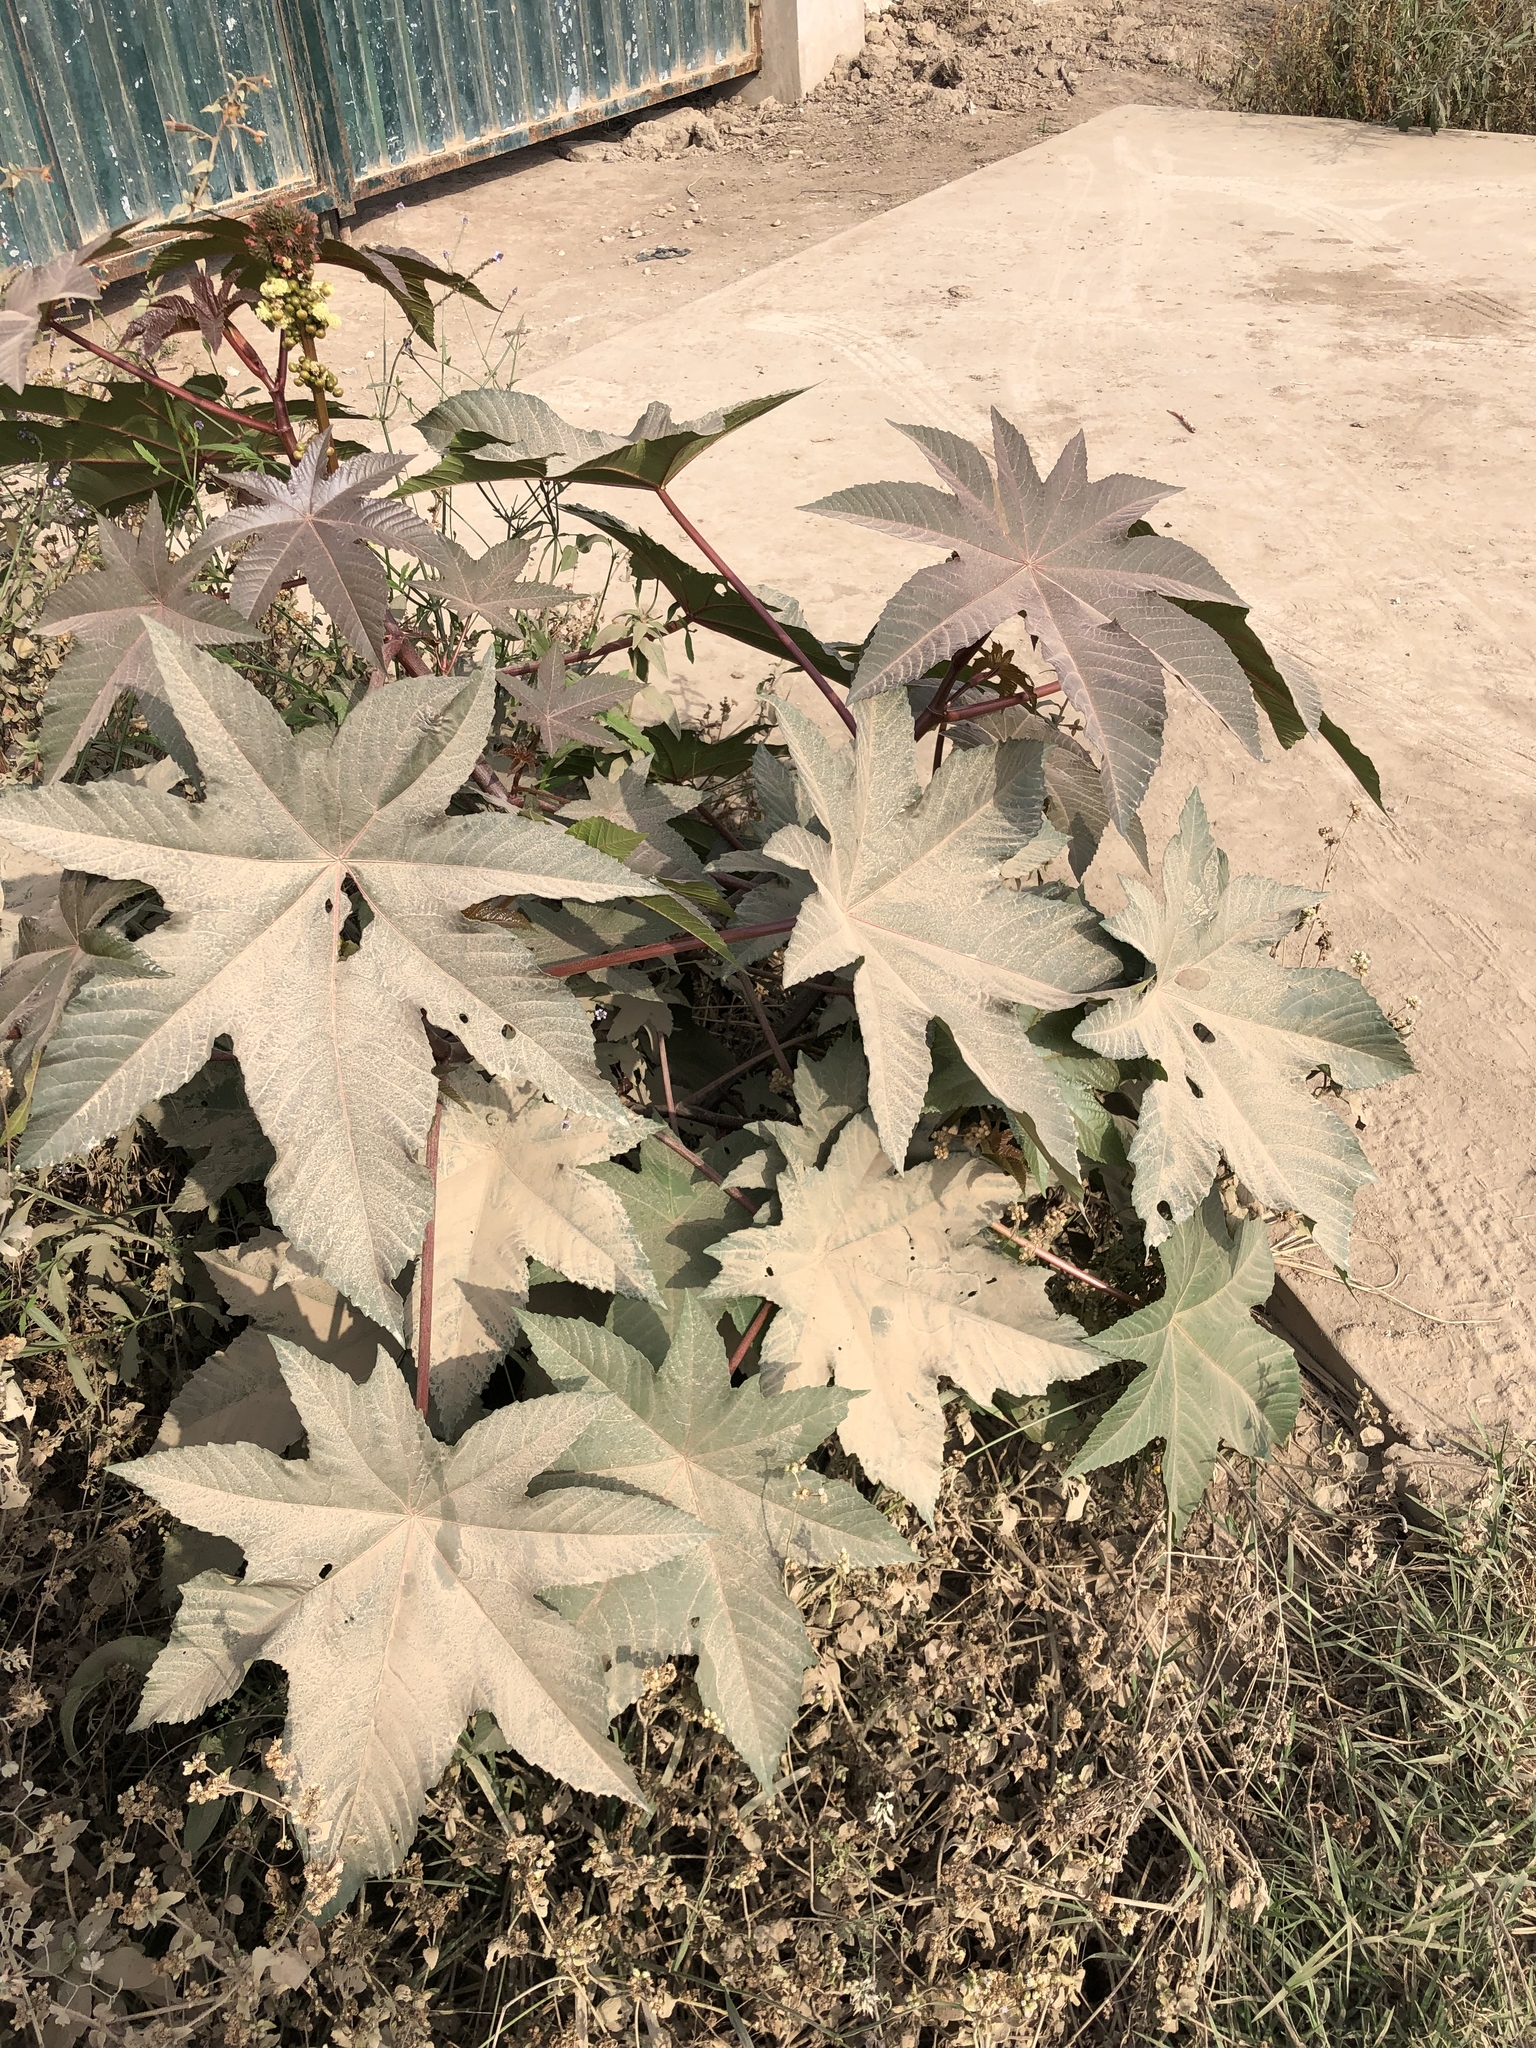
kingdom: Plantae
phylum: Tracheophyta
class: Magnoliopsida
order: Malpighiales
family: Euphorbiaceae
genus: Ricinus
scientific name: Ricinus communis
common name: Castor-oil-plant
